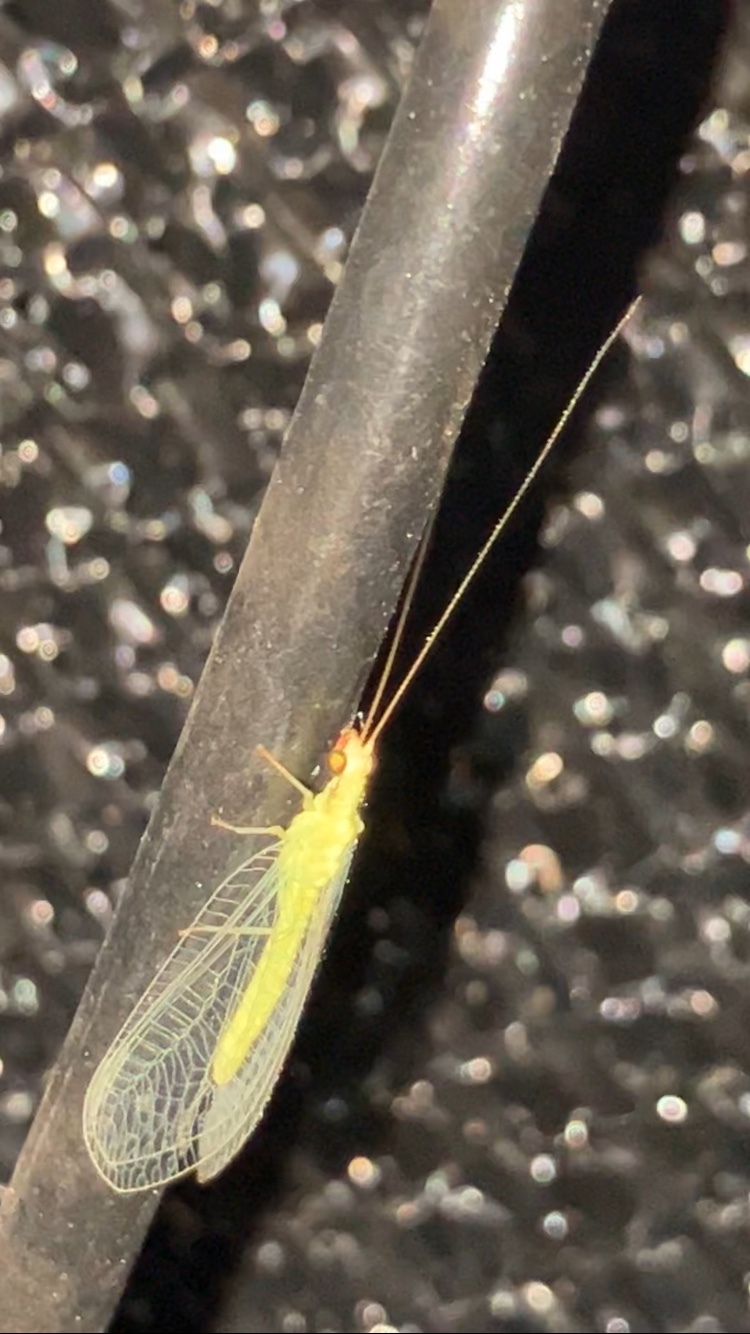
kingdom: Animalia
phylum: Arthropoda
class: Insecta
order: Neuroptera
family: Chrysopidae
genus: Chrysoperla
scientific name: Chrysoperla
